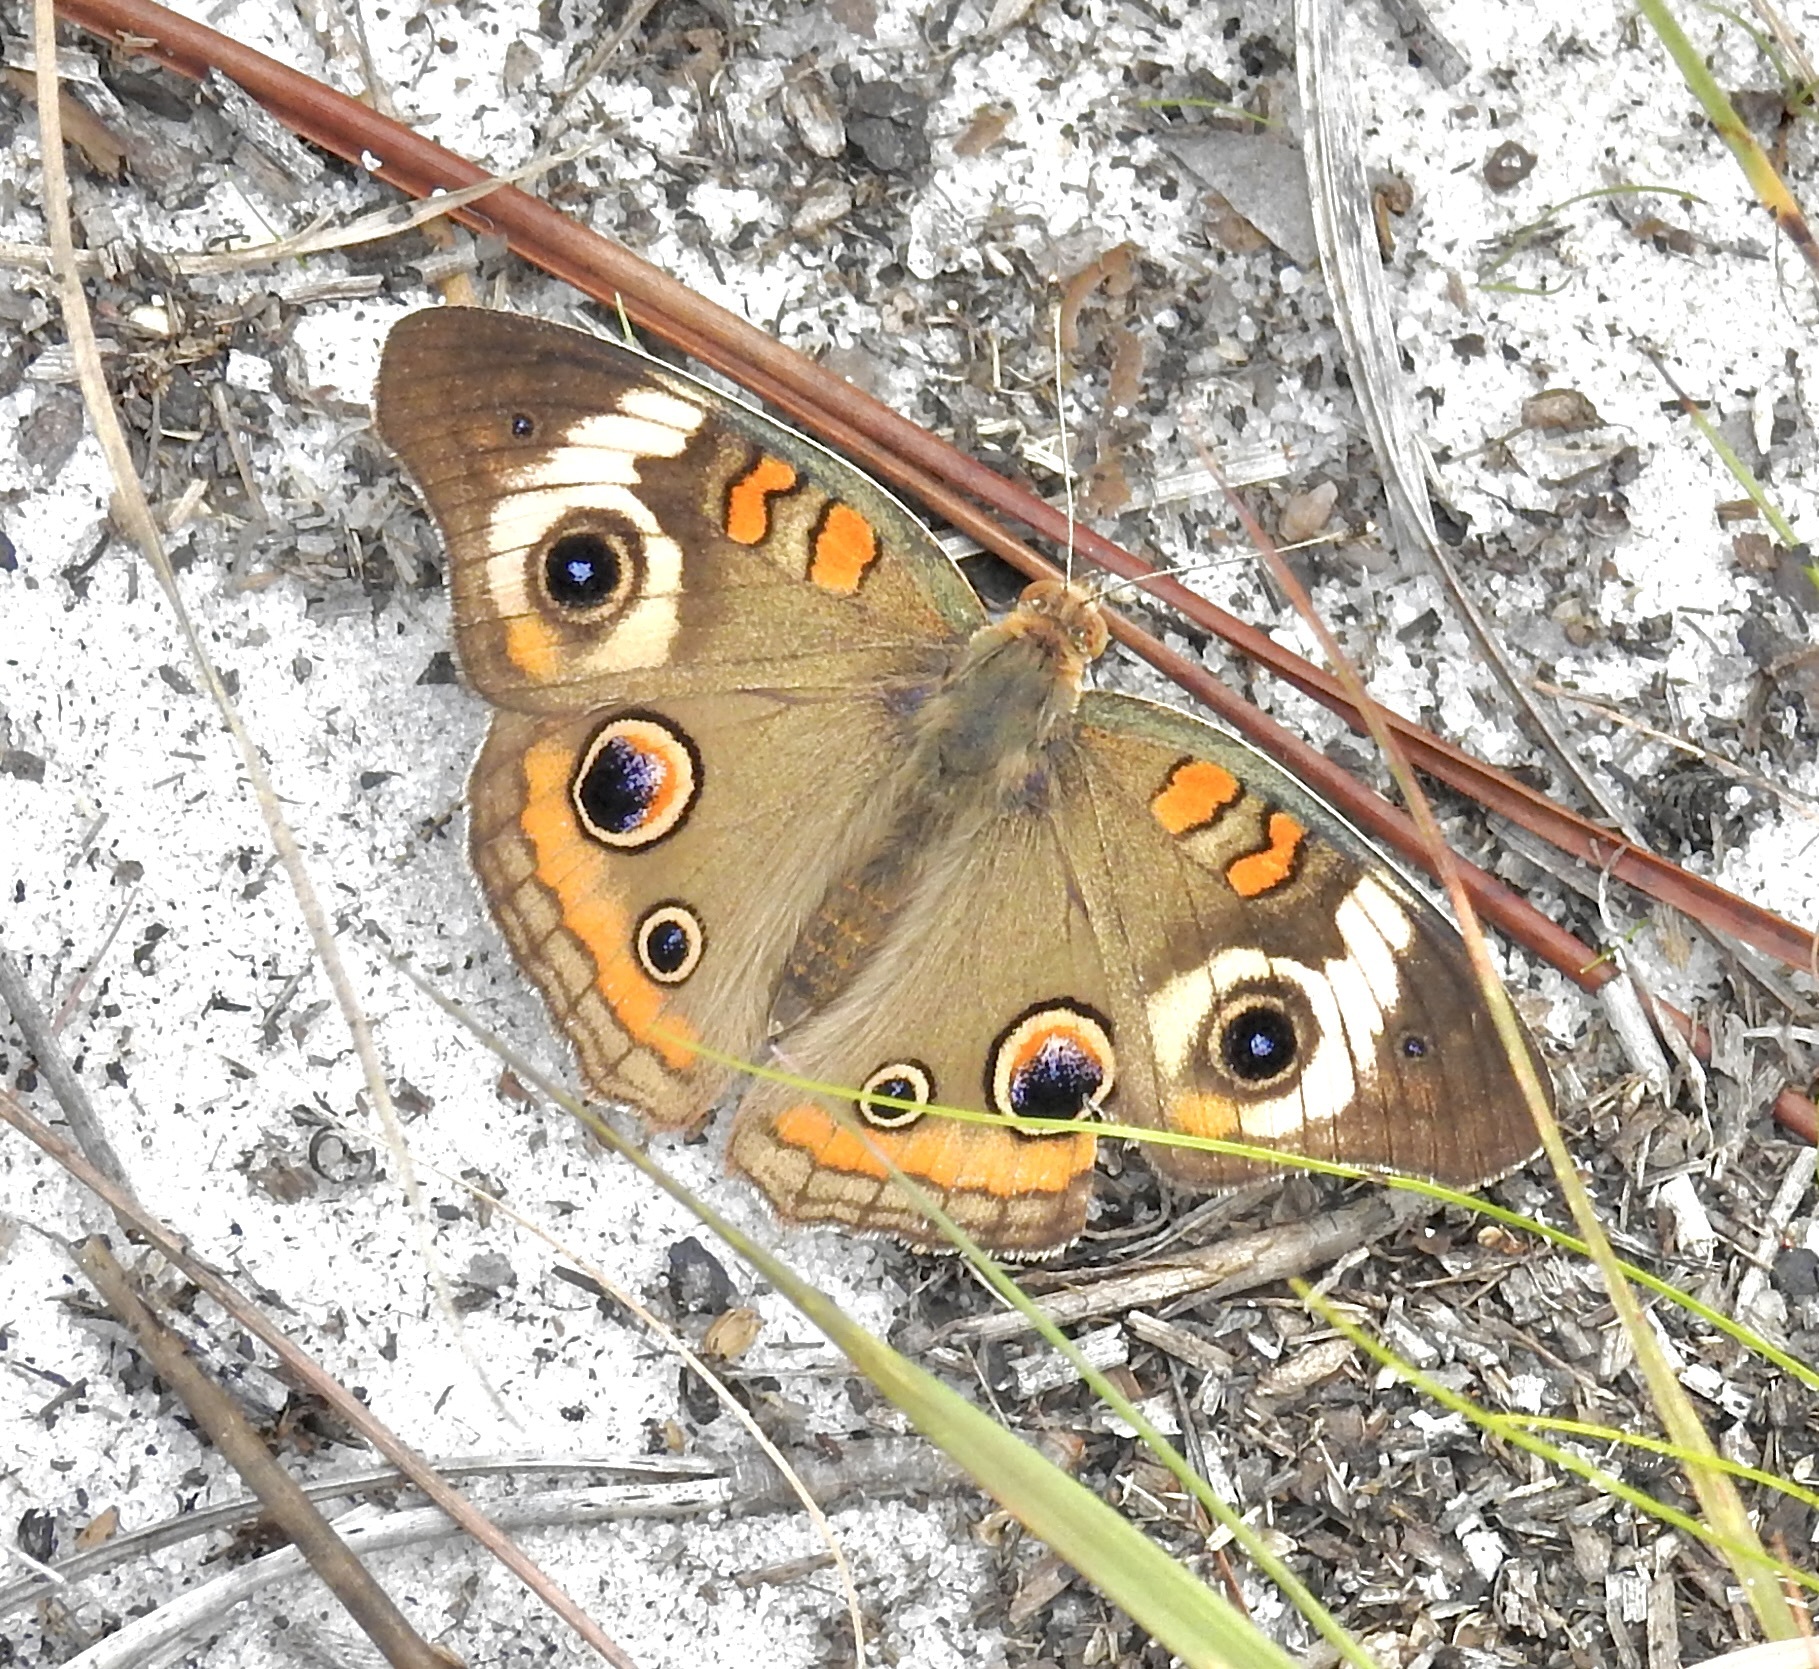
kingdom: Animalia
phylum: Arthropoda
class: Insecta
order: Lepidoptera
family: Nymphalidae
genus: Junonia
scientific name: Junonia coenia
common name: Common buckeye
